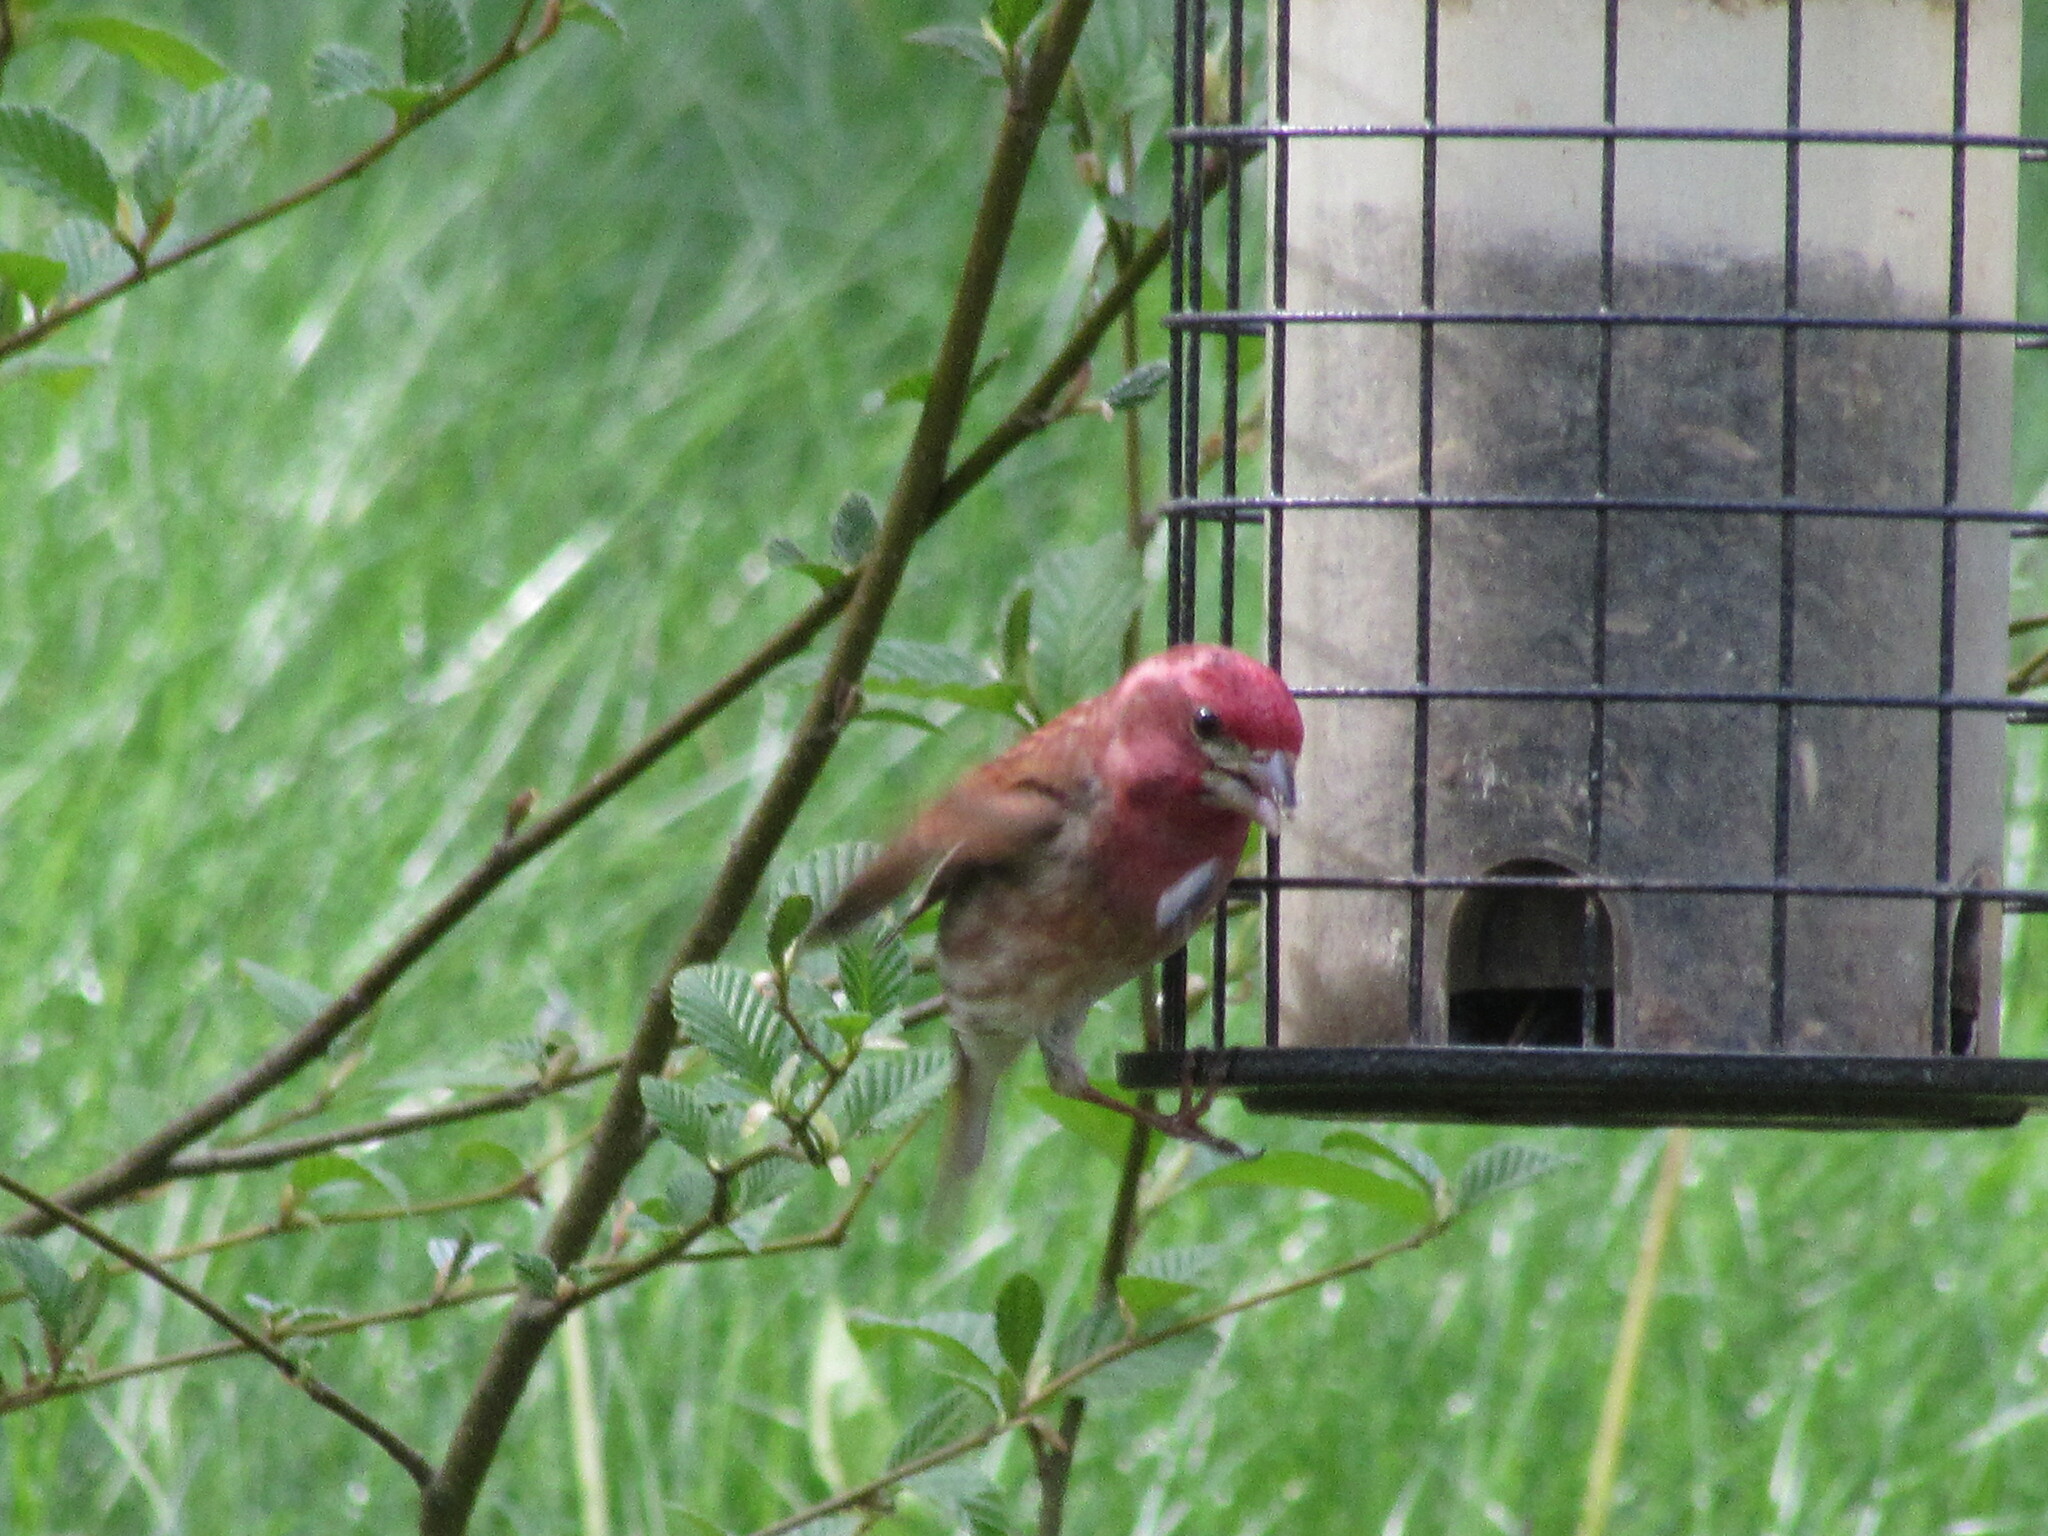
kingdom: Animalia
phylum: Chordata
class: Aves
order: Passeriformes
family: Fringillidae
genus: Haemorhous
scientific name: Haemorhous purpureus
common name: Purple finch
